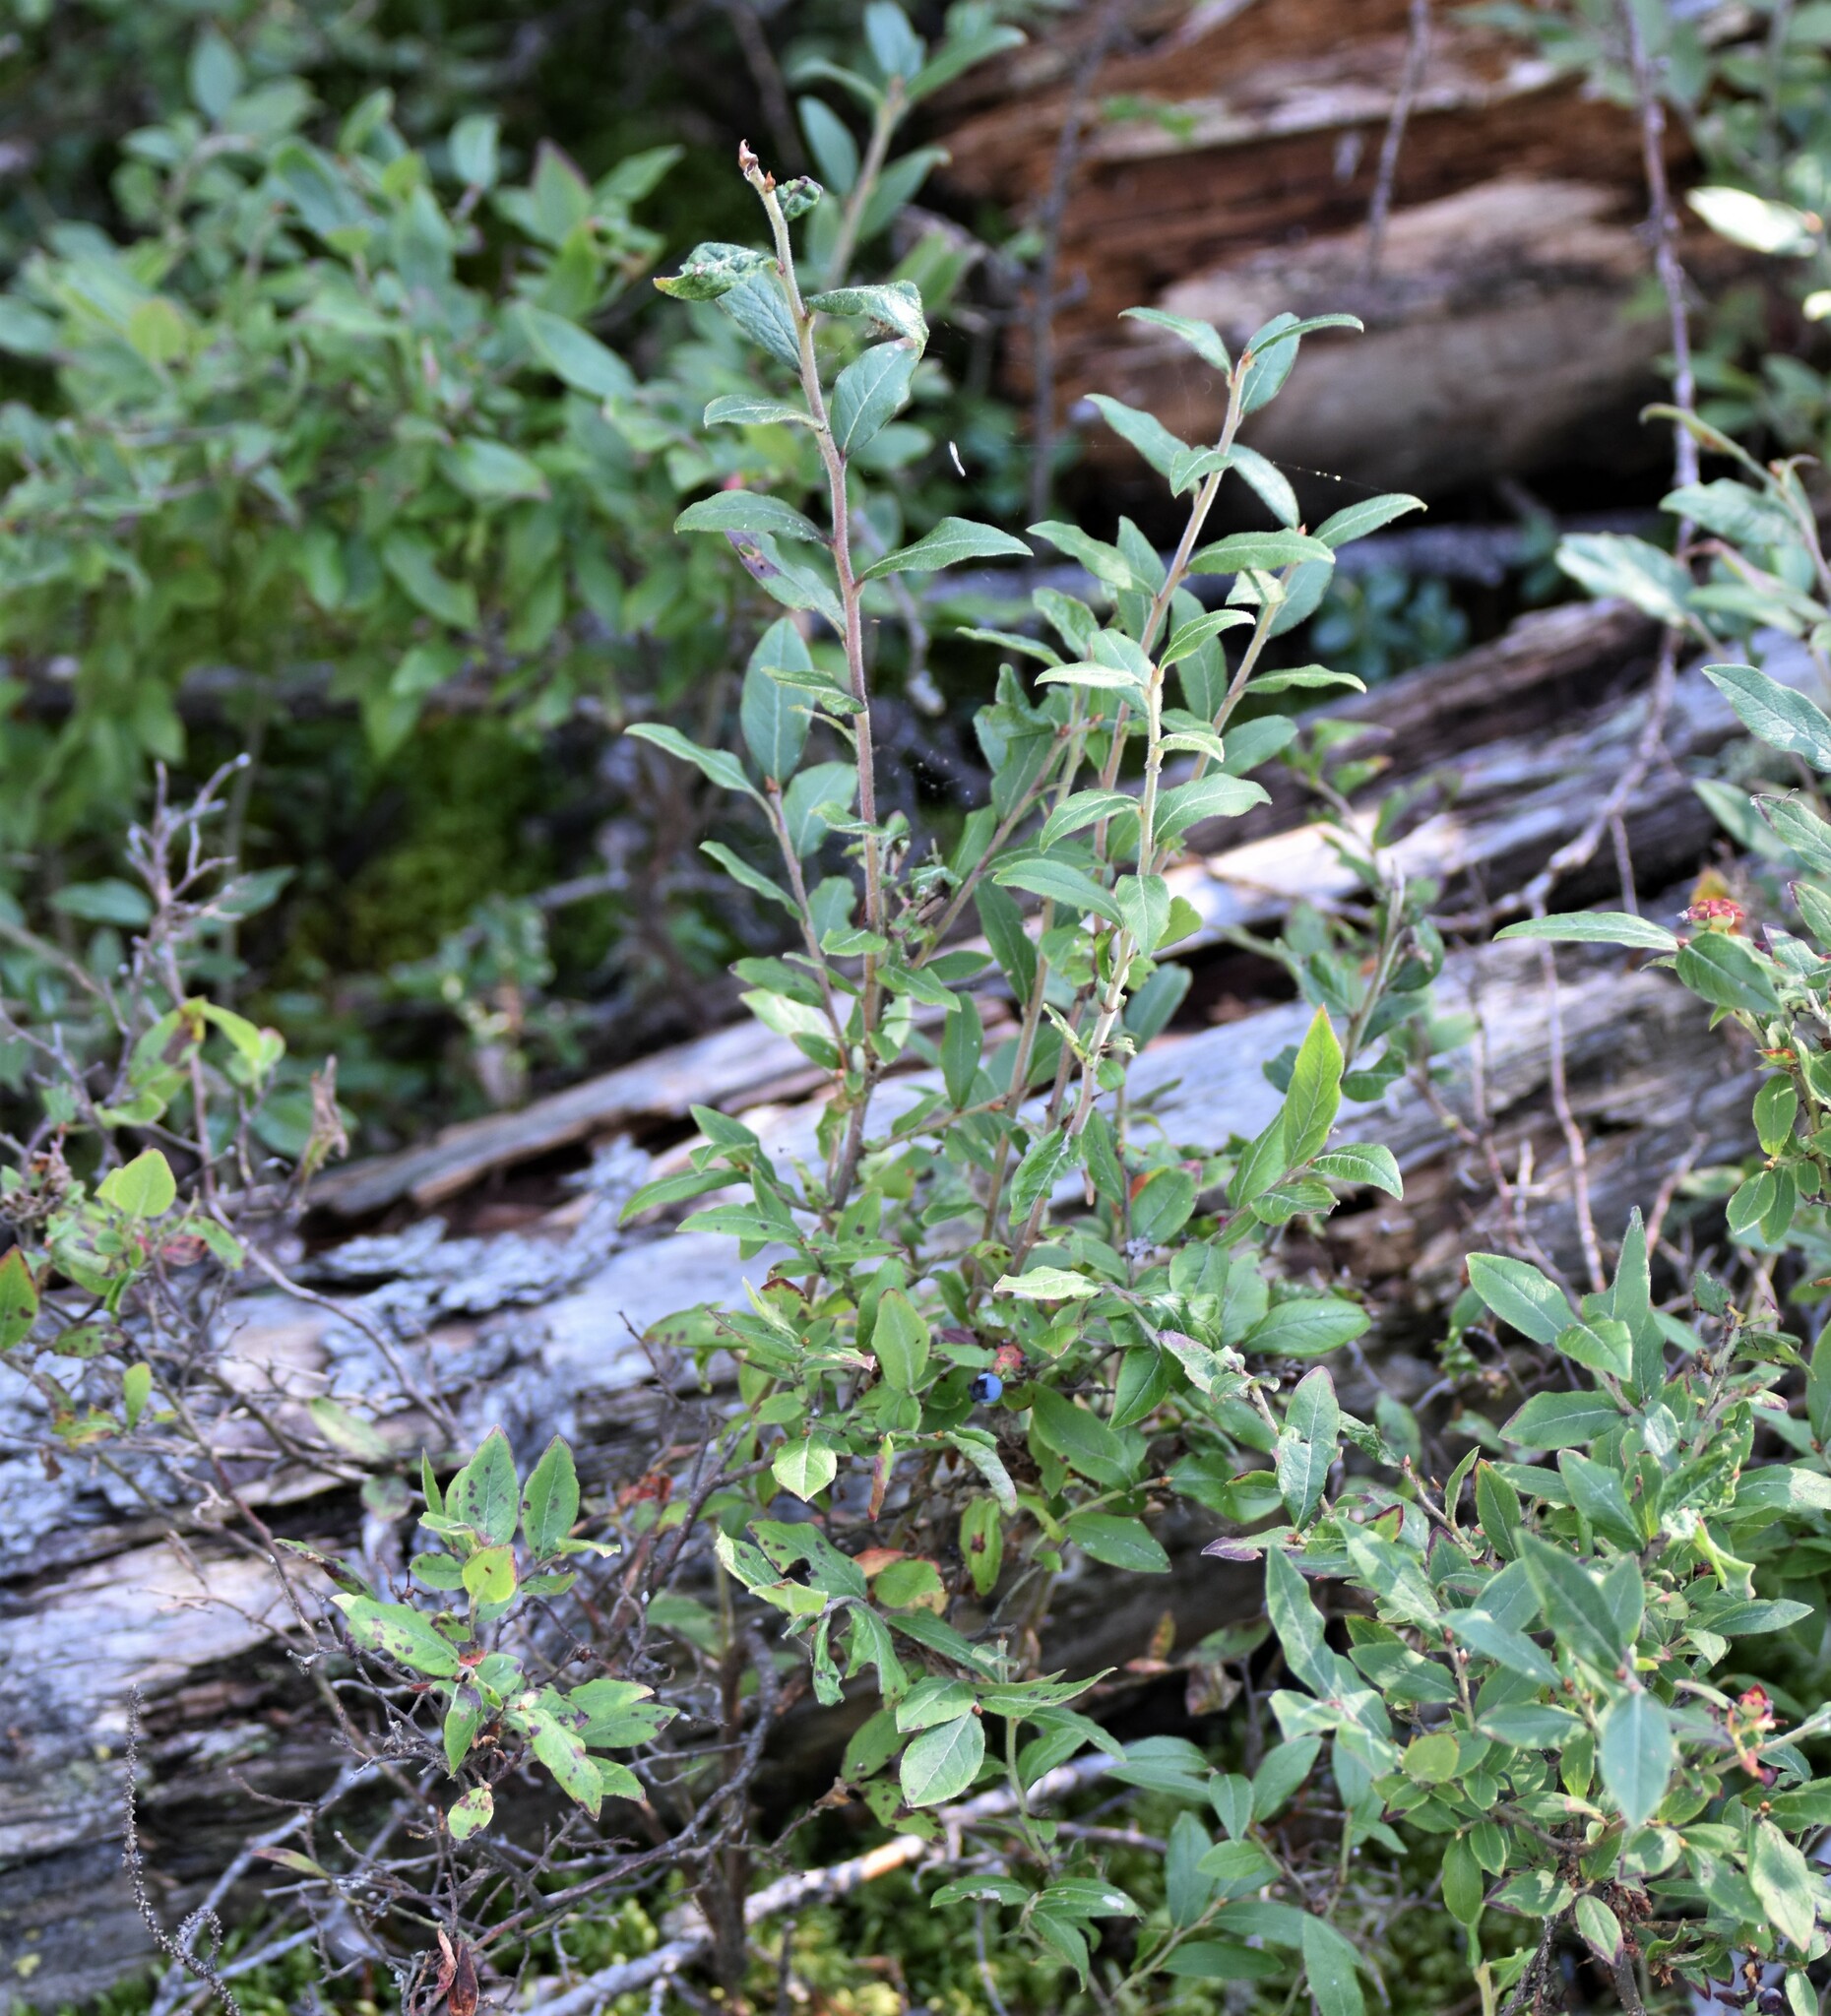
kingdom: Plantae
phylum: Tracheophyta
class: Magnoliopsida
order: Ericales
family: Ericaceae
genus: Vaccinium
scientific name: Vaccinium myrtilloides
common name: Canada blueberry
